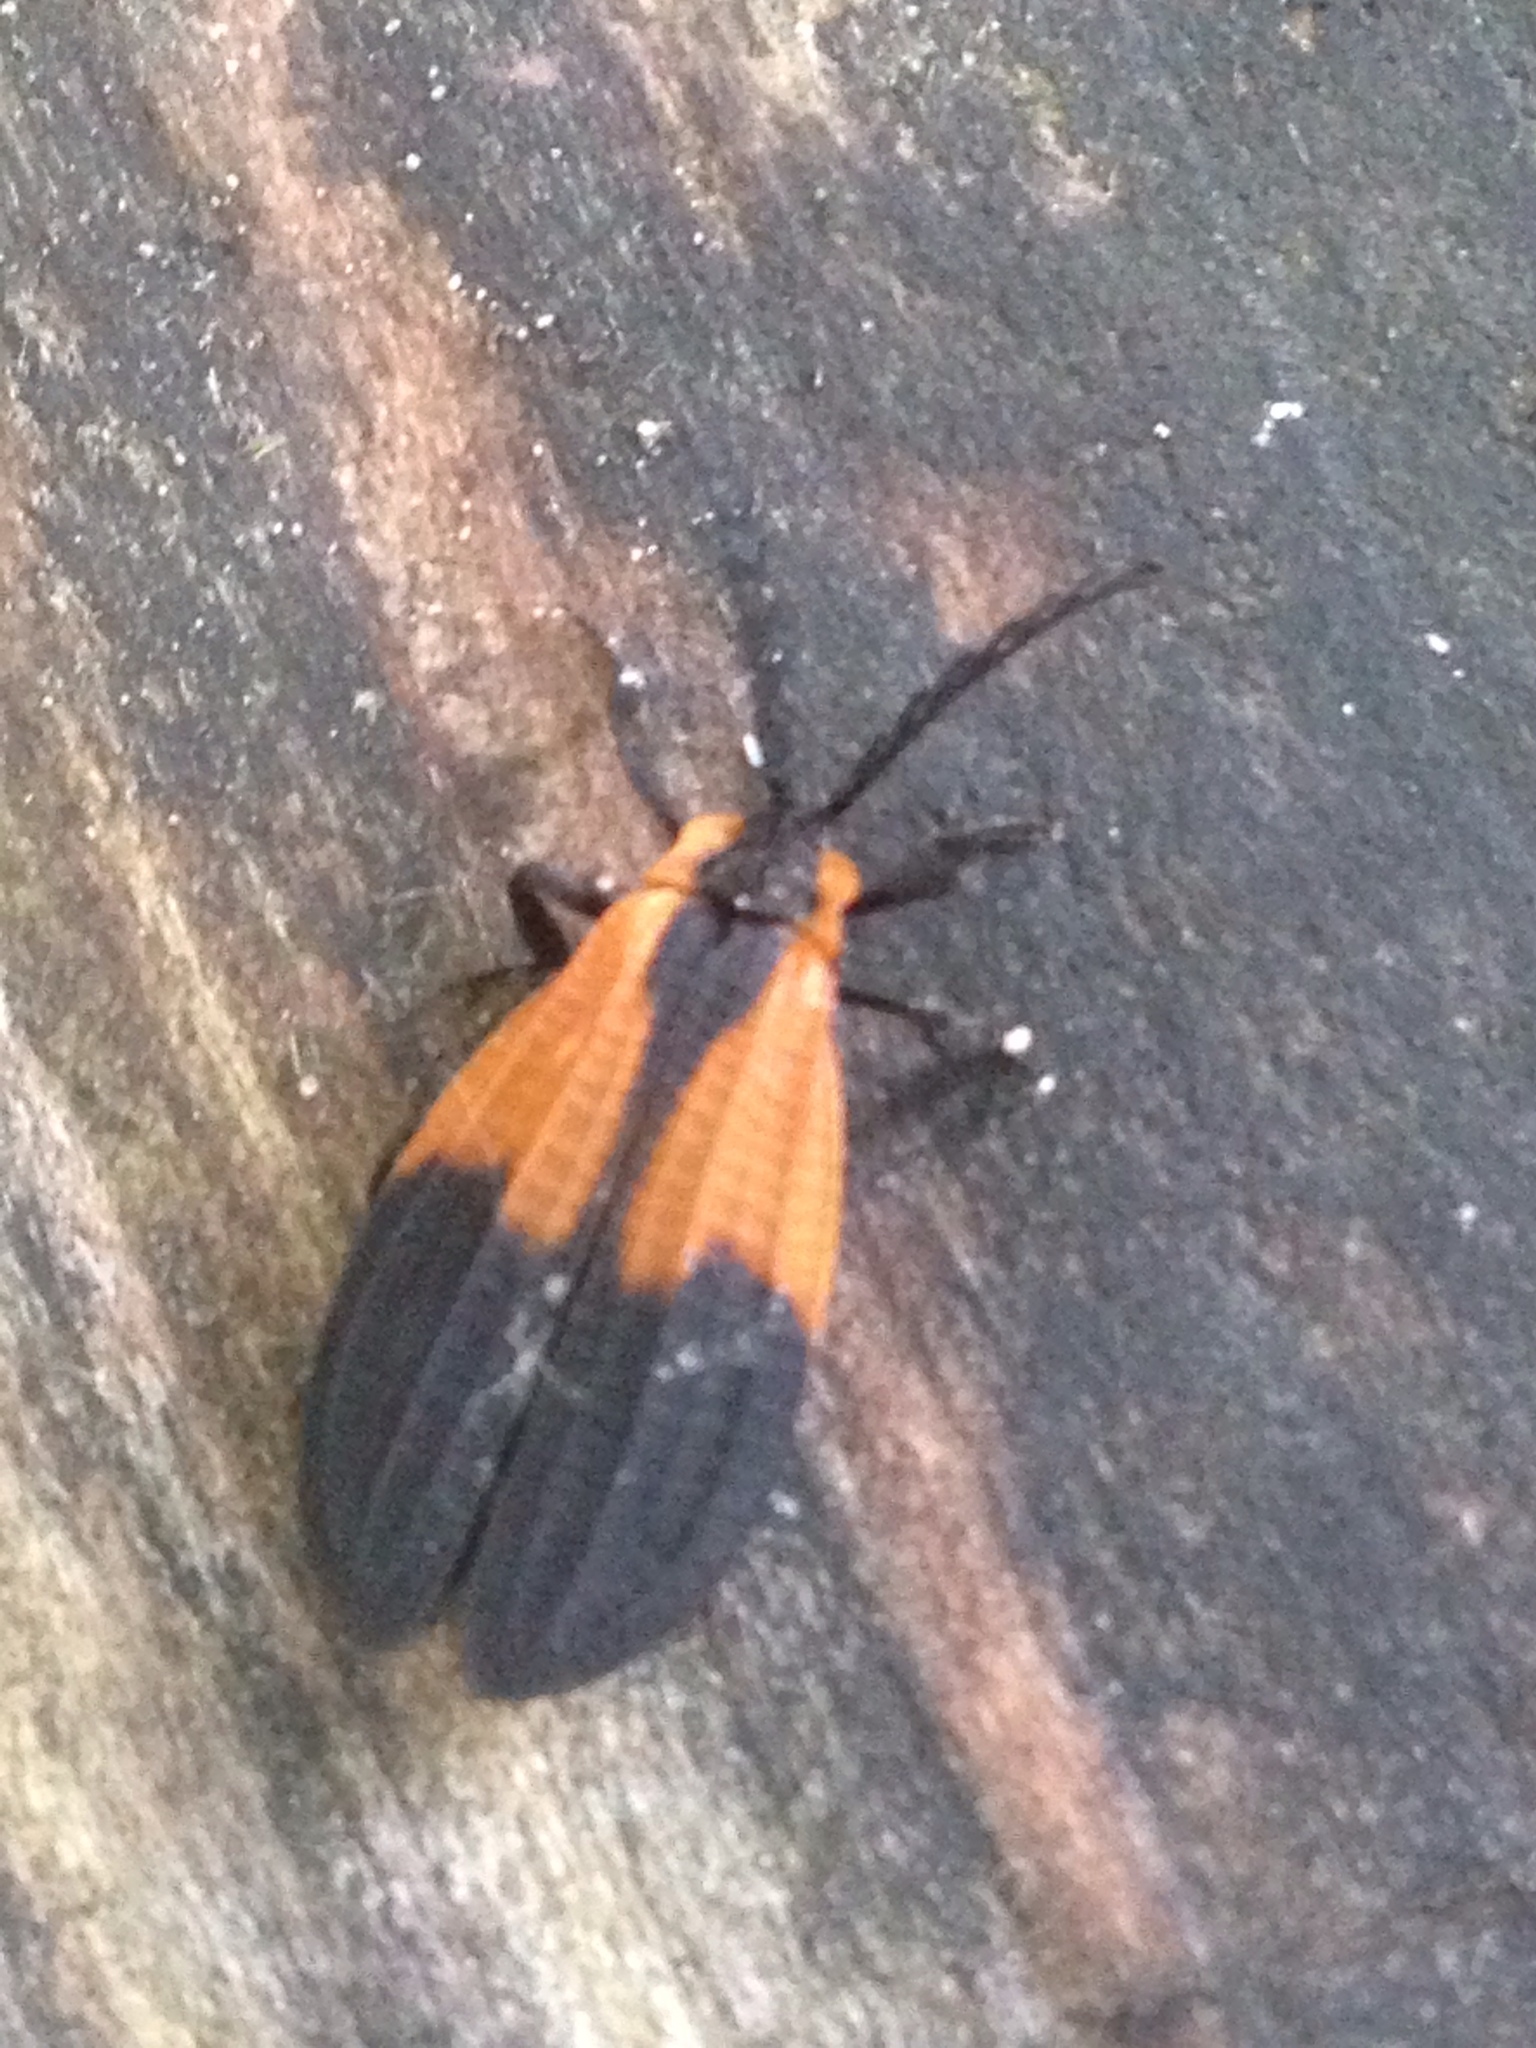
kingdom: Animalia
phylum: Arthropoda
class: Insecta
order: Coleoptera
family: Lycidae
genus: Caenia
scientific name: Caenia dimidiata
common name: Terminal net-winged beetle
